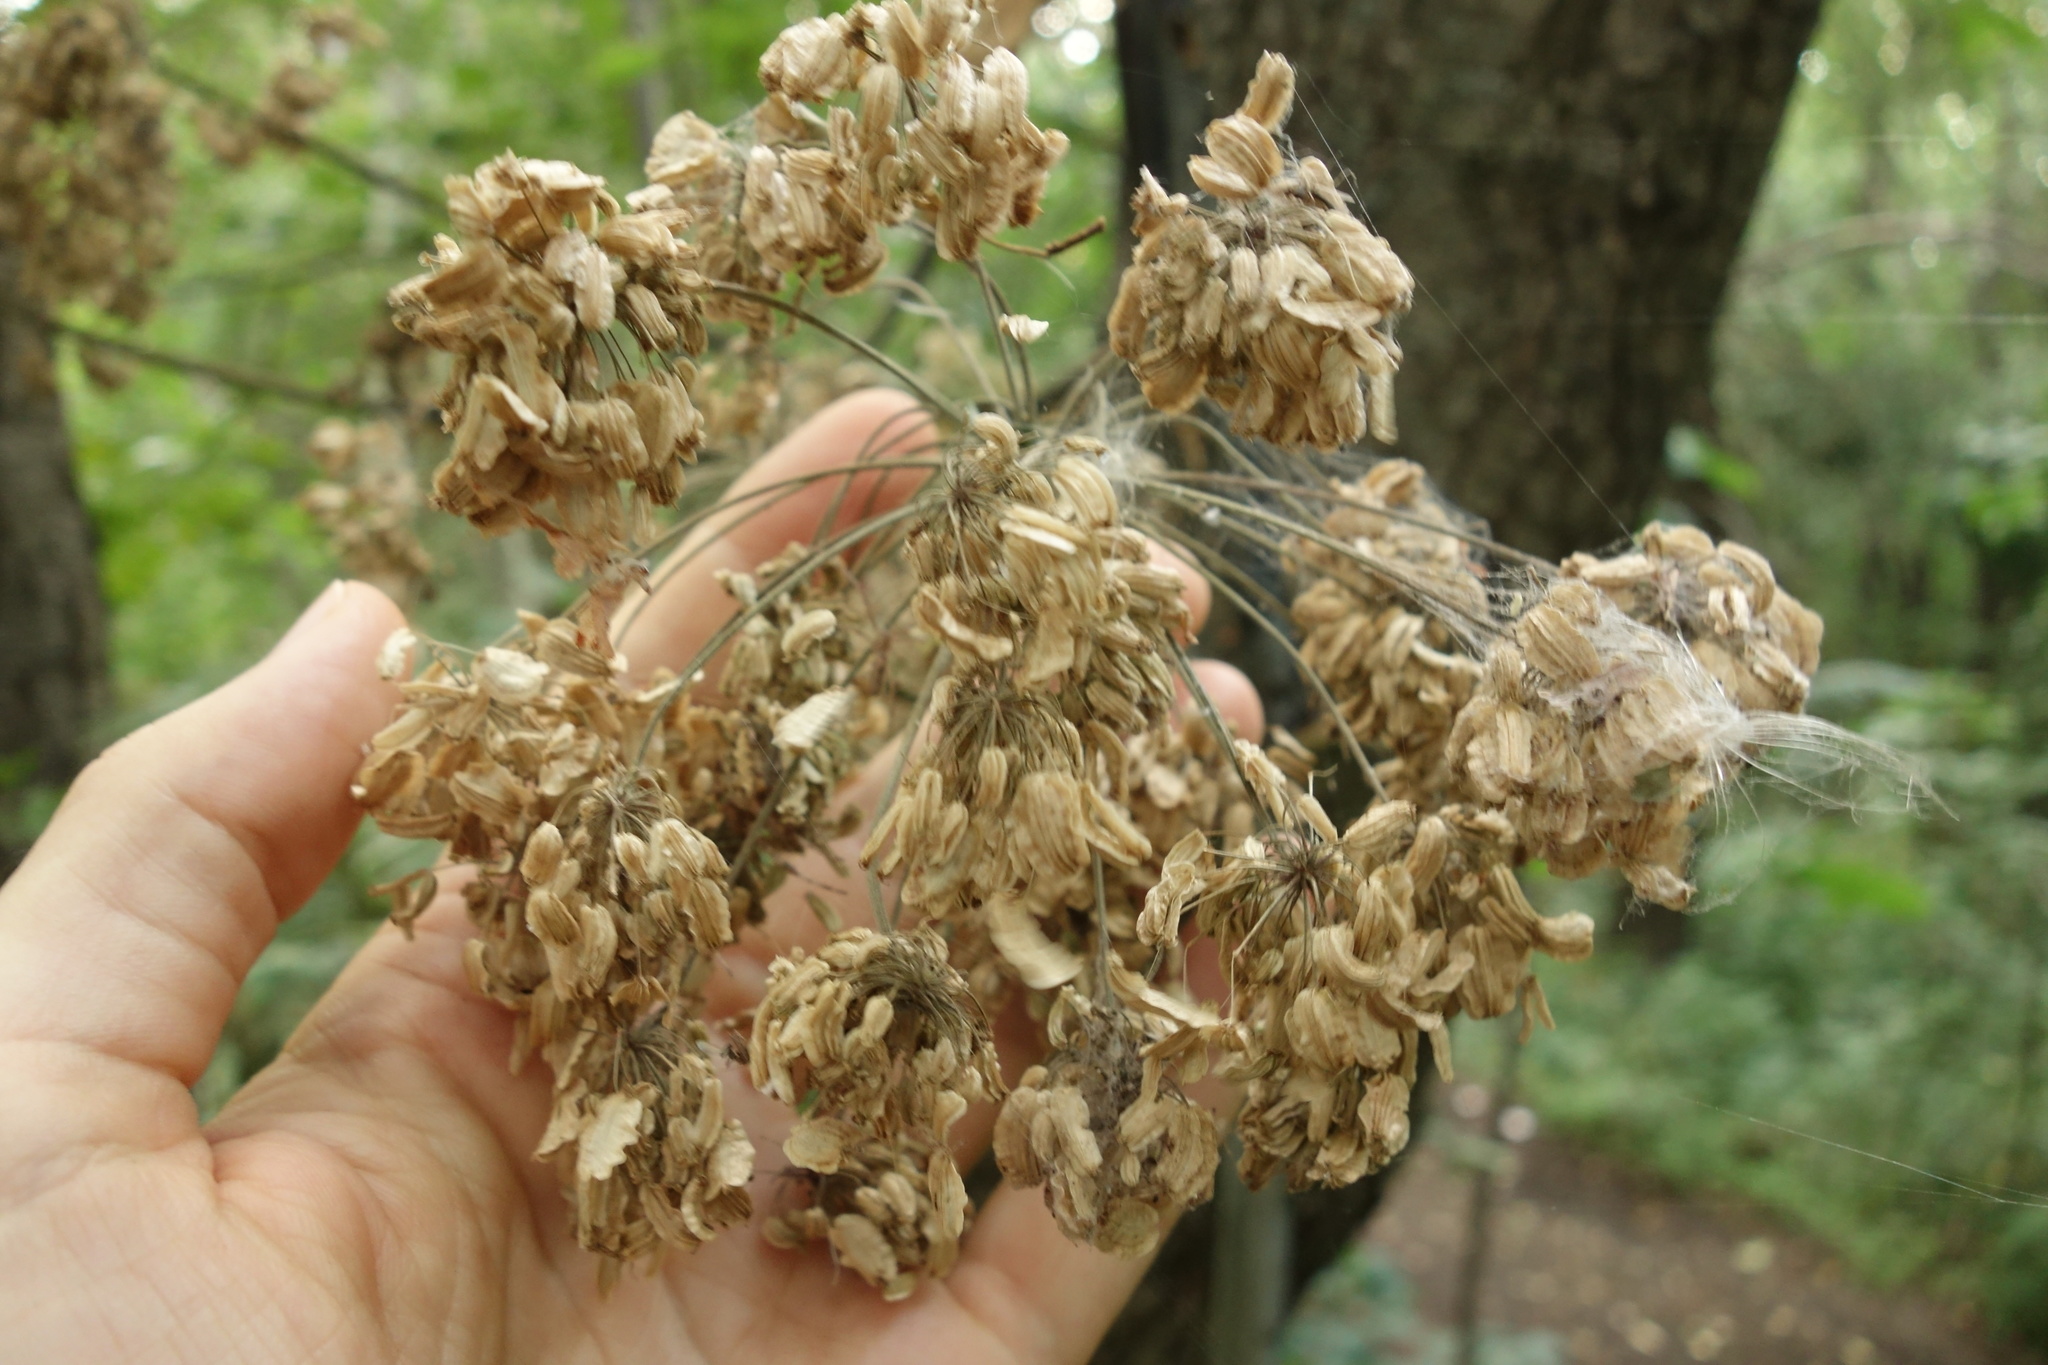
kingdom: Plantae
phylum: Tracheophyta
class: Magnoliopsida
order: Apiales
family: Apiaceae
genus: Angelica
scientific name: Angelica archangelica
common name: Garden angelica
